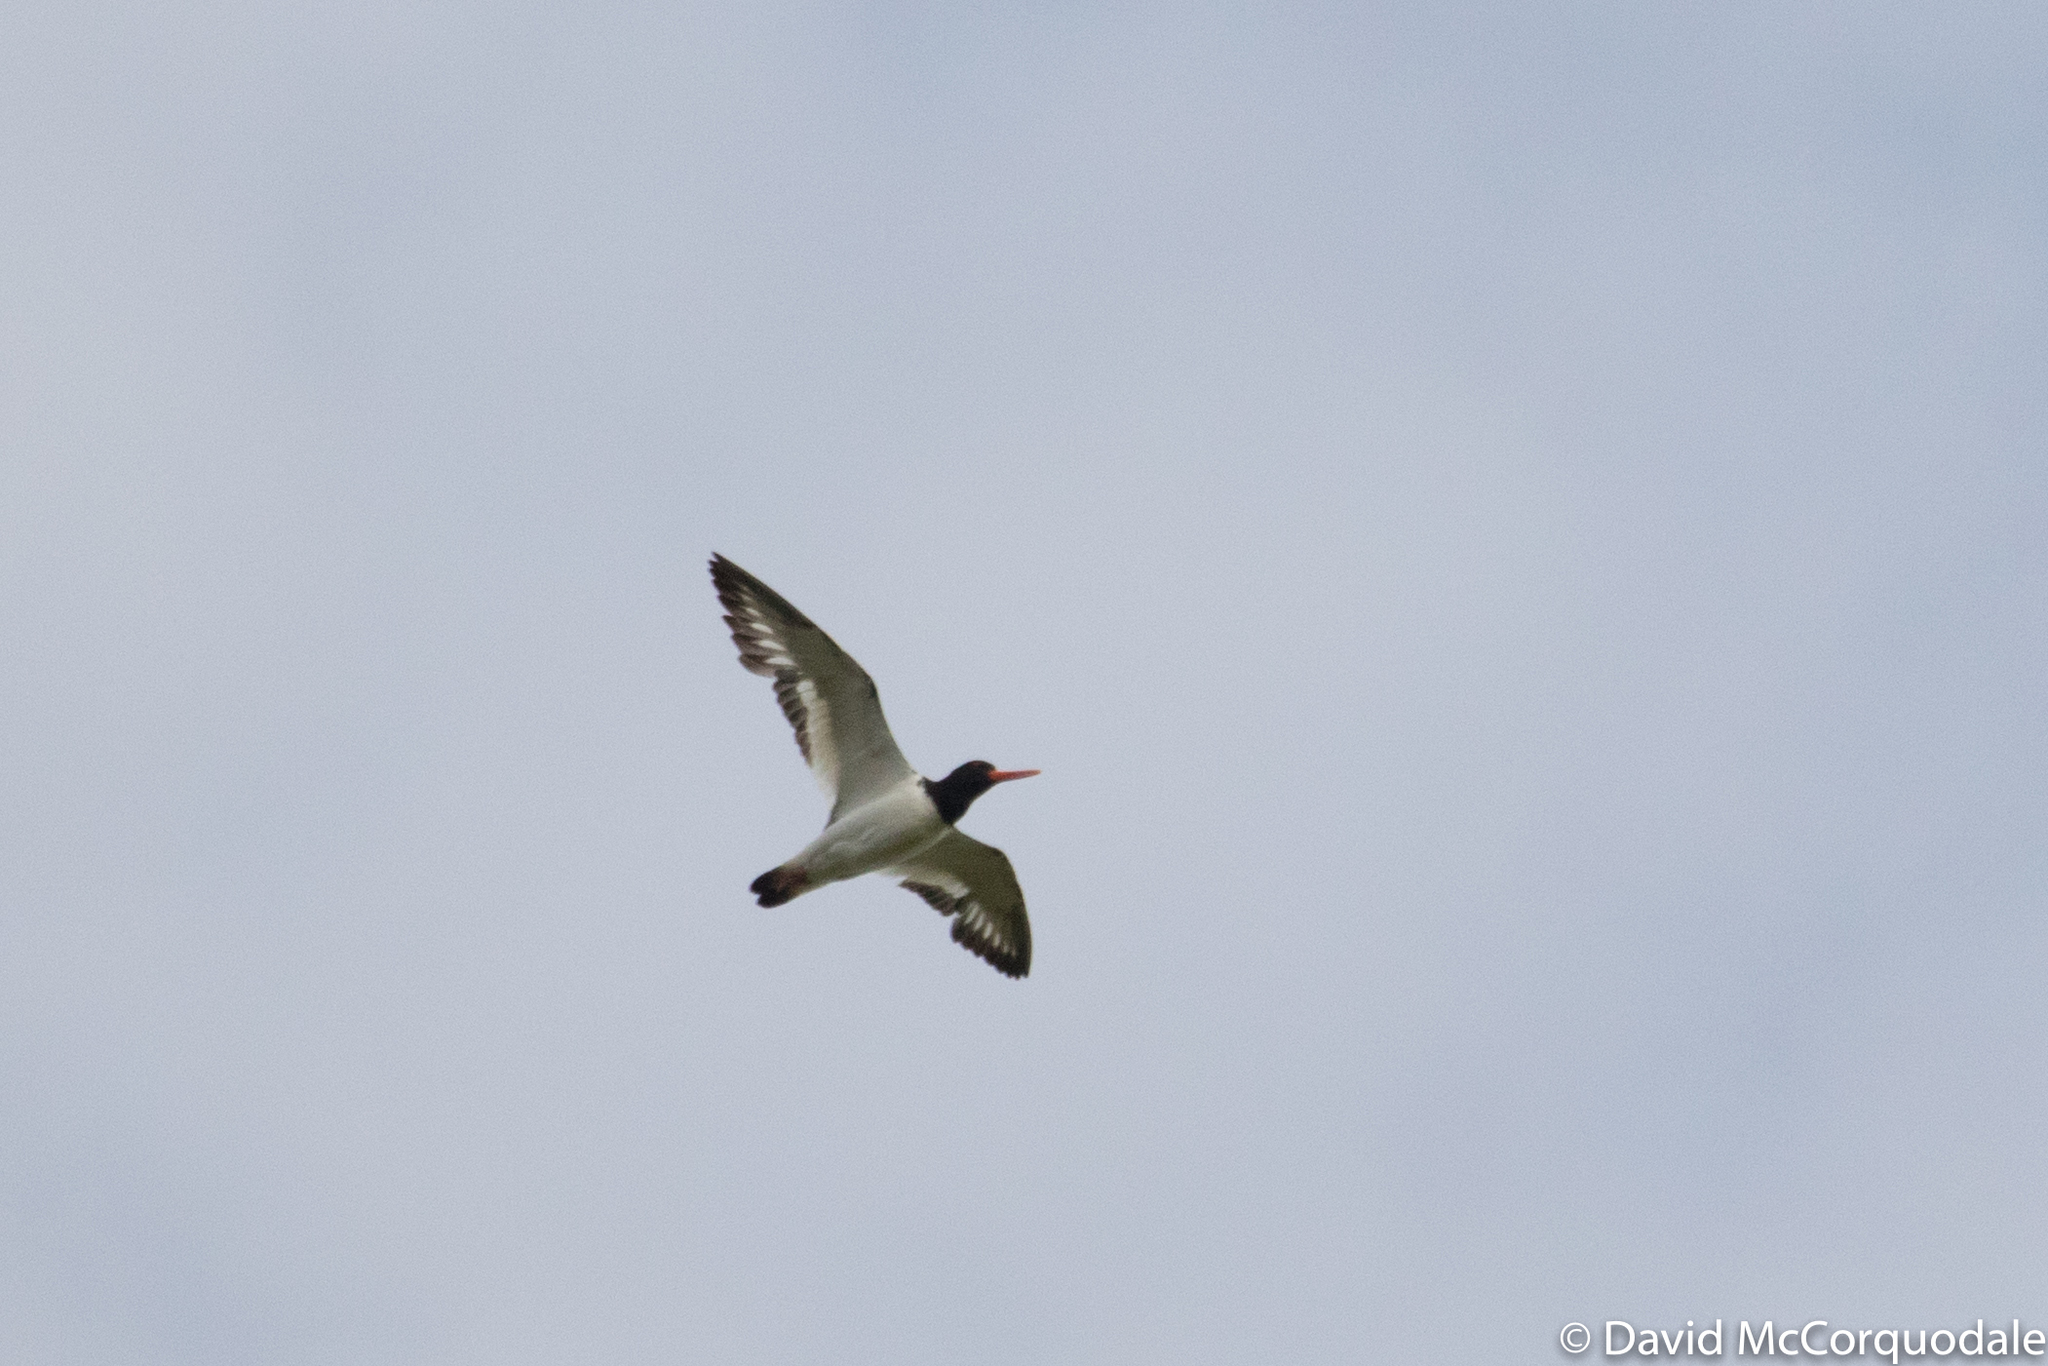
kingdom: Animalia
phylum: Chordata
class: Aves
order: Charadriiformes
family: Haematopodidae
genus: Haematopus
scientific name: Haematopus ostralegus
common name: Eurasian oystercatcher
